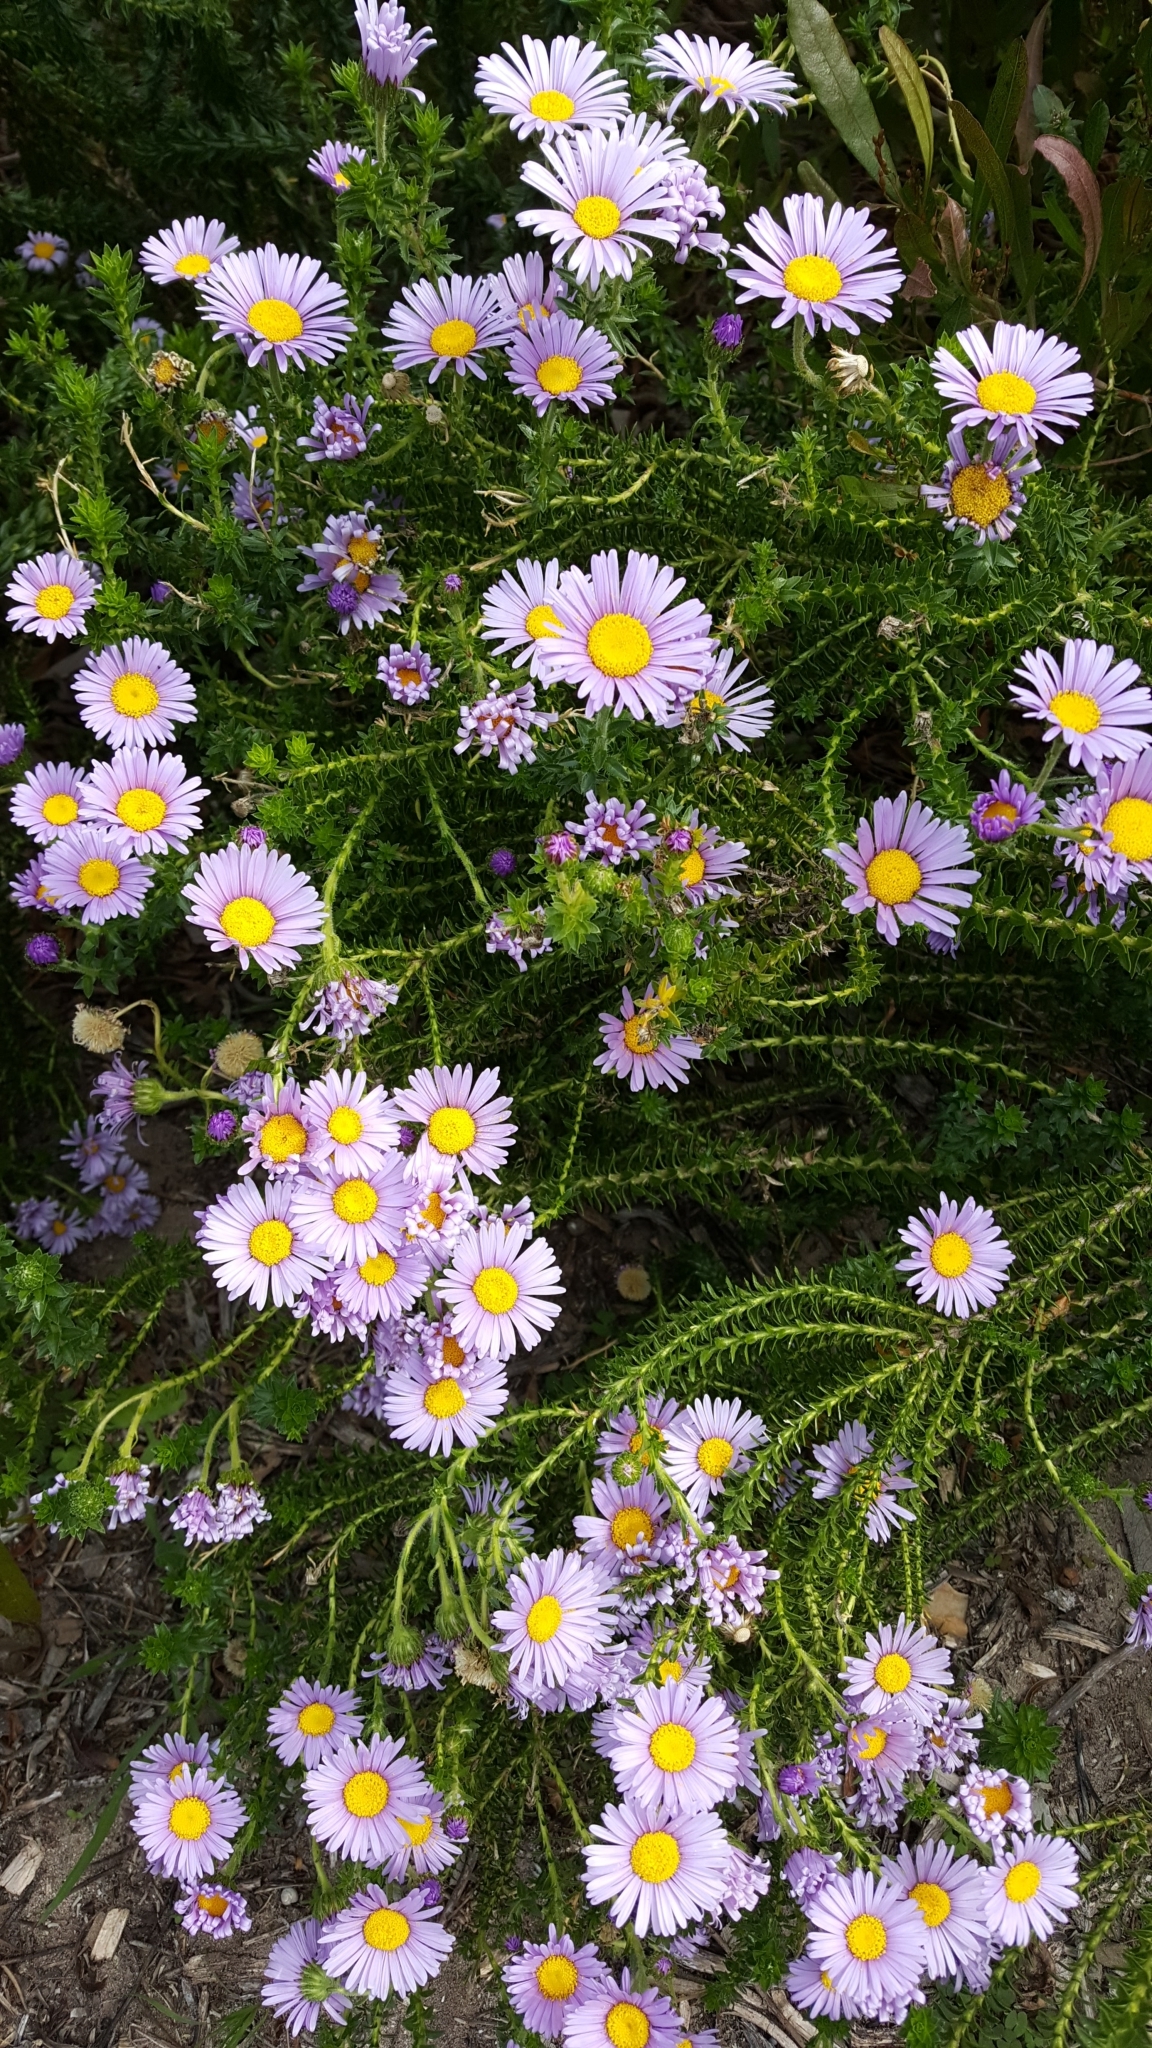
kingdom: Plantae
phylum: Tracheophyta
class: Magnoliopsida
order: Asterales
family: Asteraceae
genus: Felicia
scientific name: Felicia echinata
